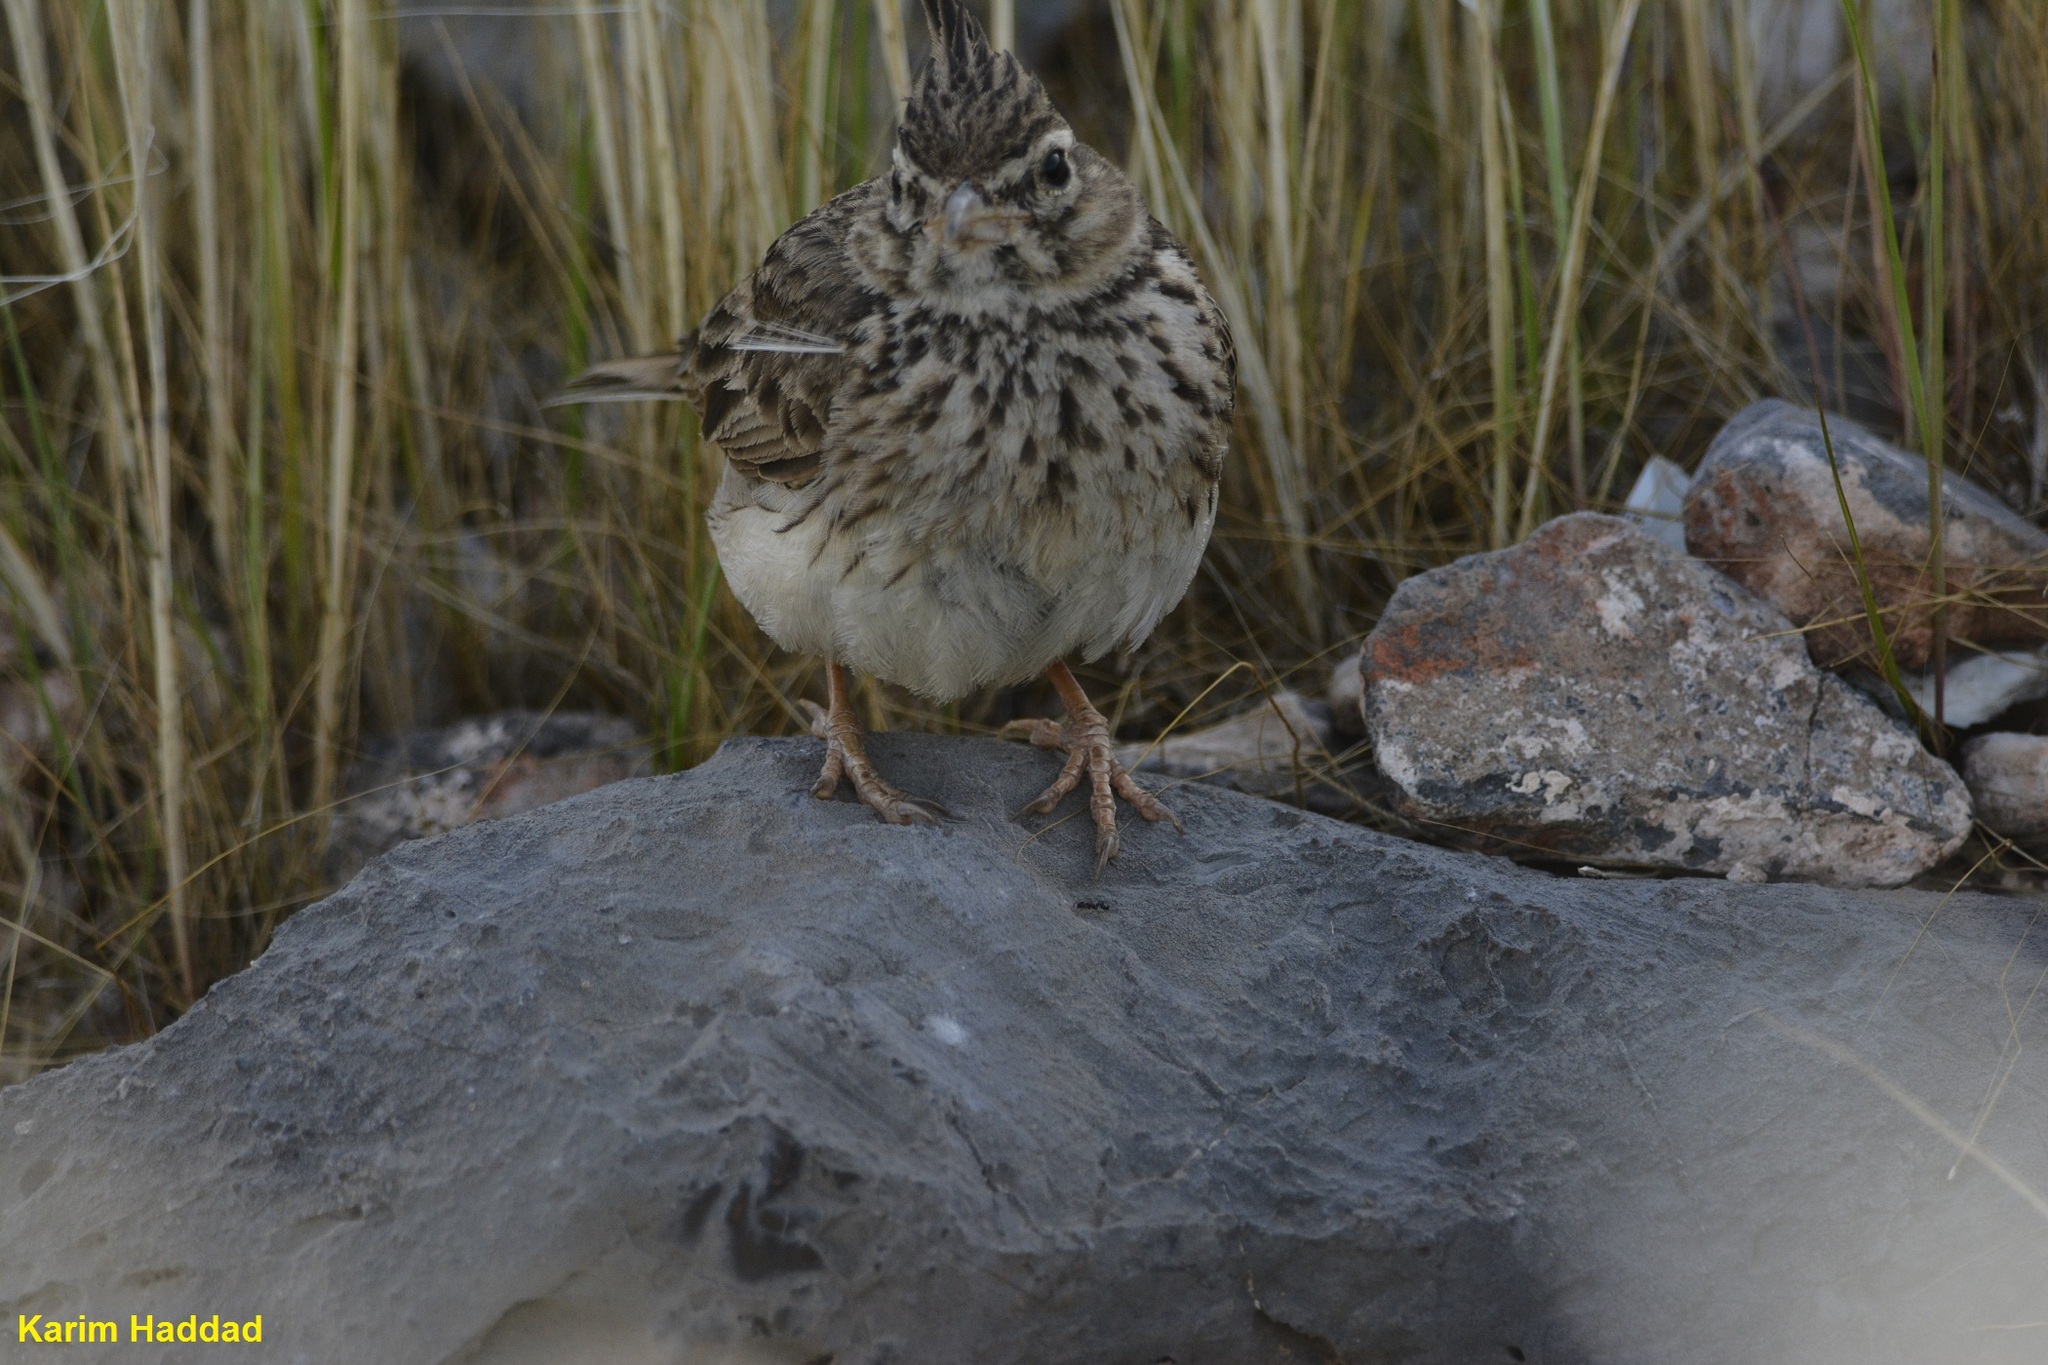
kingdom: Animalia
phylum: Chordata
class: Aves
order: Passeriformes
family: Alaudidae
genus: Galerida
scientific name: Galerida theklae
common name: Thekla lark
